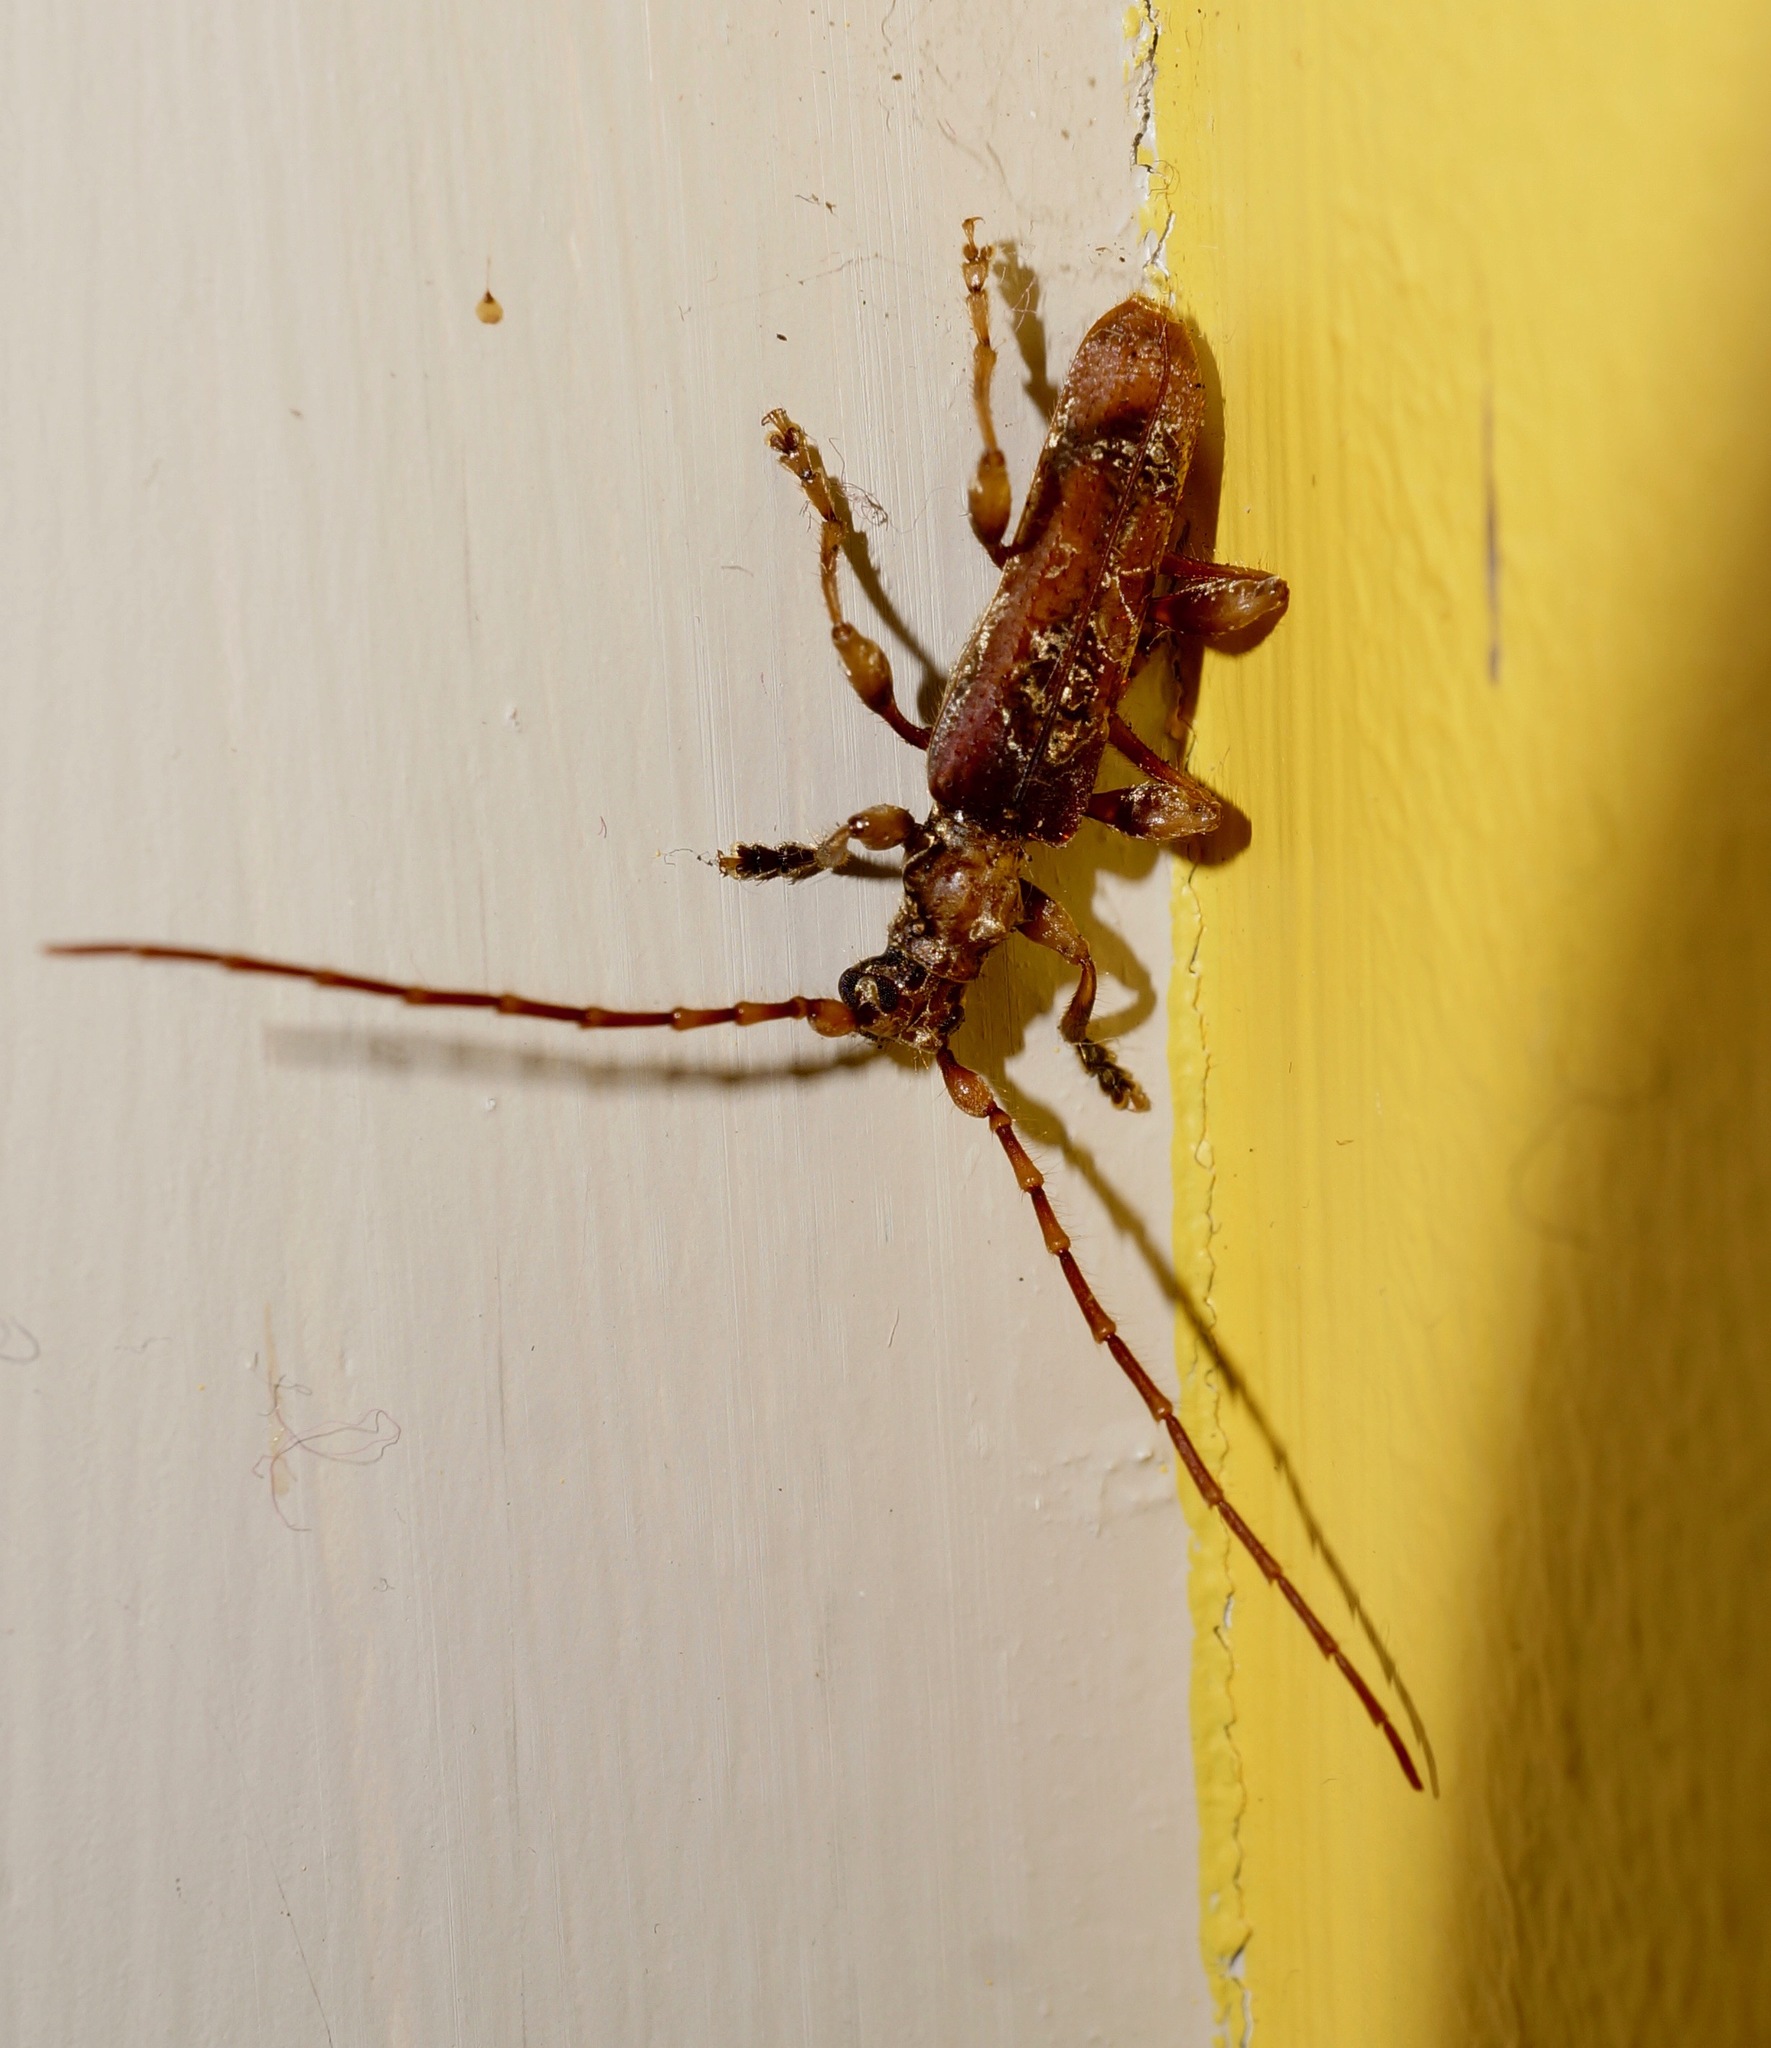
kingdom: Animalia
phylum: Arthropoda
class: Insecta
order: Coleoptera
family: Cerambycidae
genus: Tessaromma
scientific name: Tessaromma undatum
